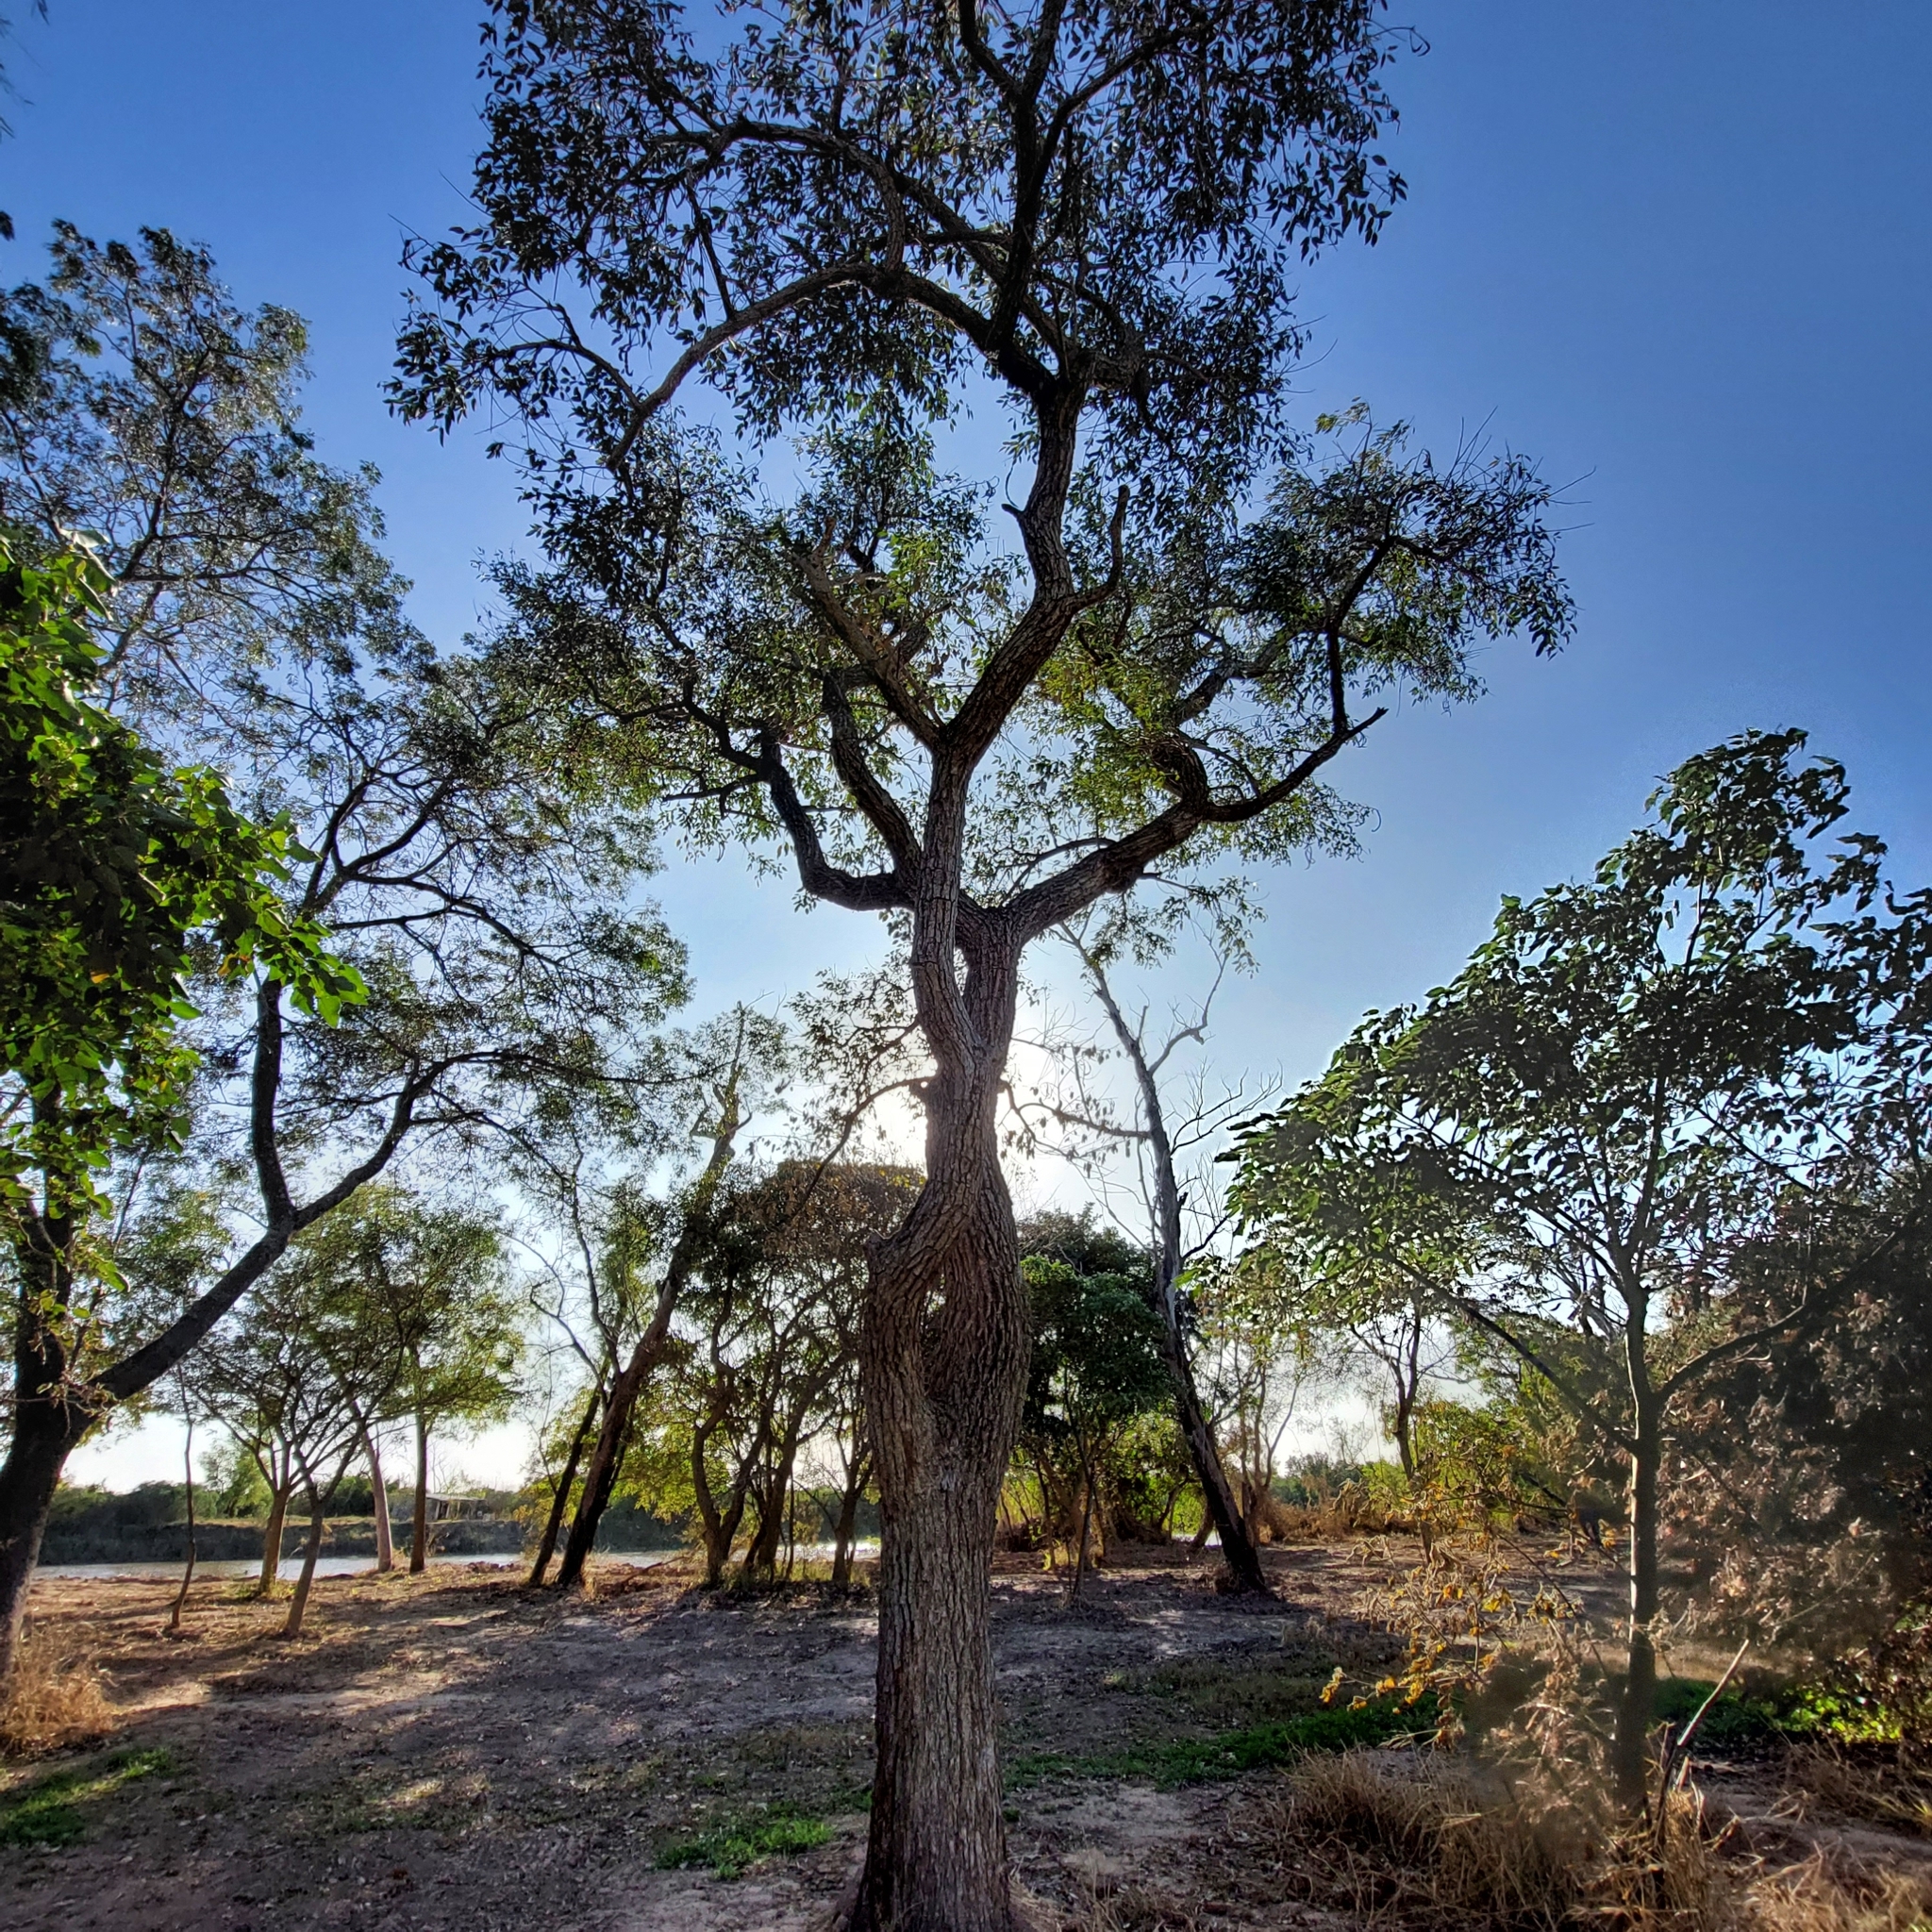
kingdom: Plantae
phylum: Tracheophyta
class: Magnoliopsida
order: Fabales
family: Fabaceae
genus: Erythrina
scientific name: Erythrina crista-galli
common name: Cockspur coral tree
